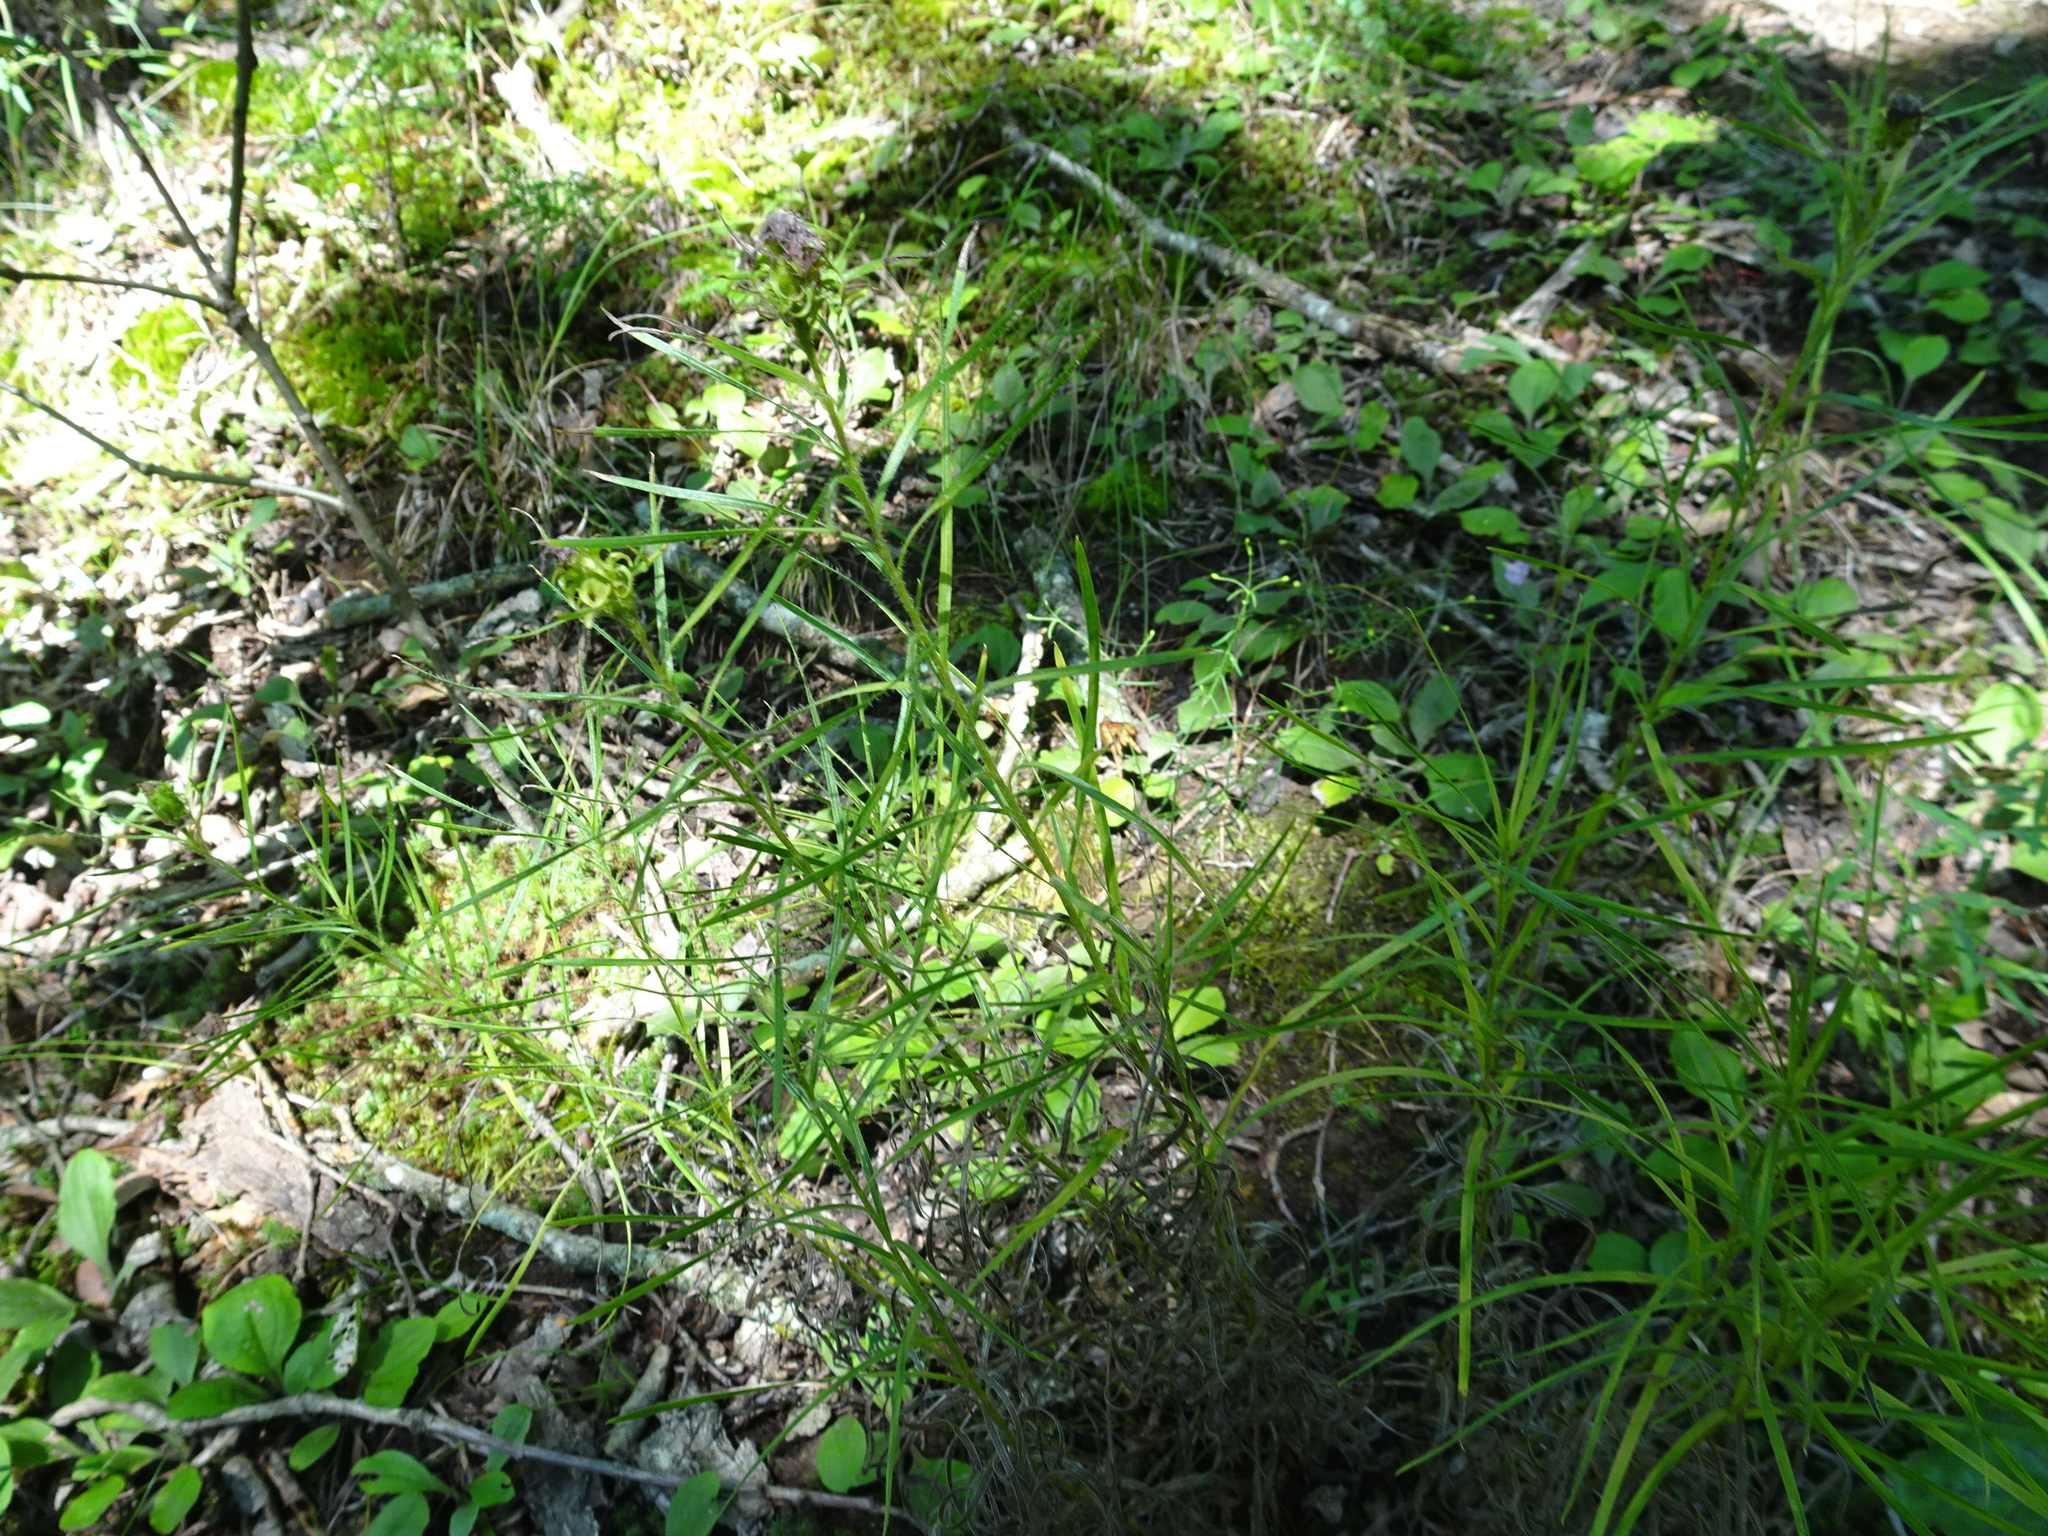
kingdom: Plantae
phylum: Tracheophyta
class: Magnoliopsida
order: Asterales
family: Asteraceae
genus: Liatris
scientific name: Liatris hirsuta
